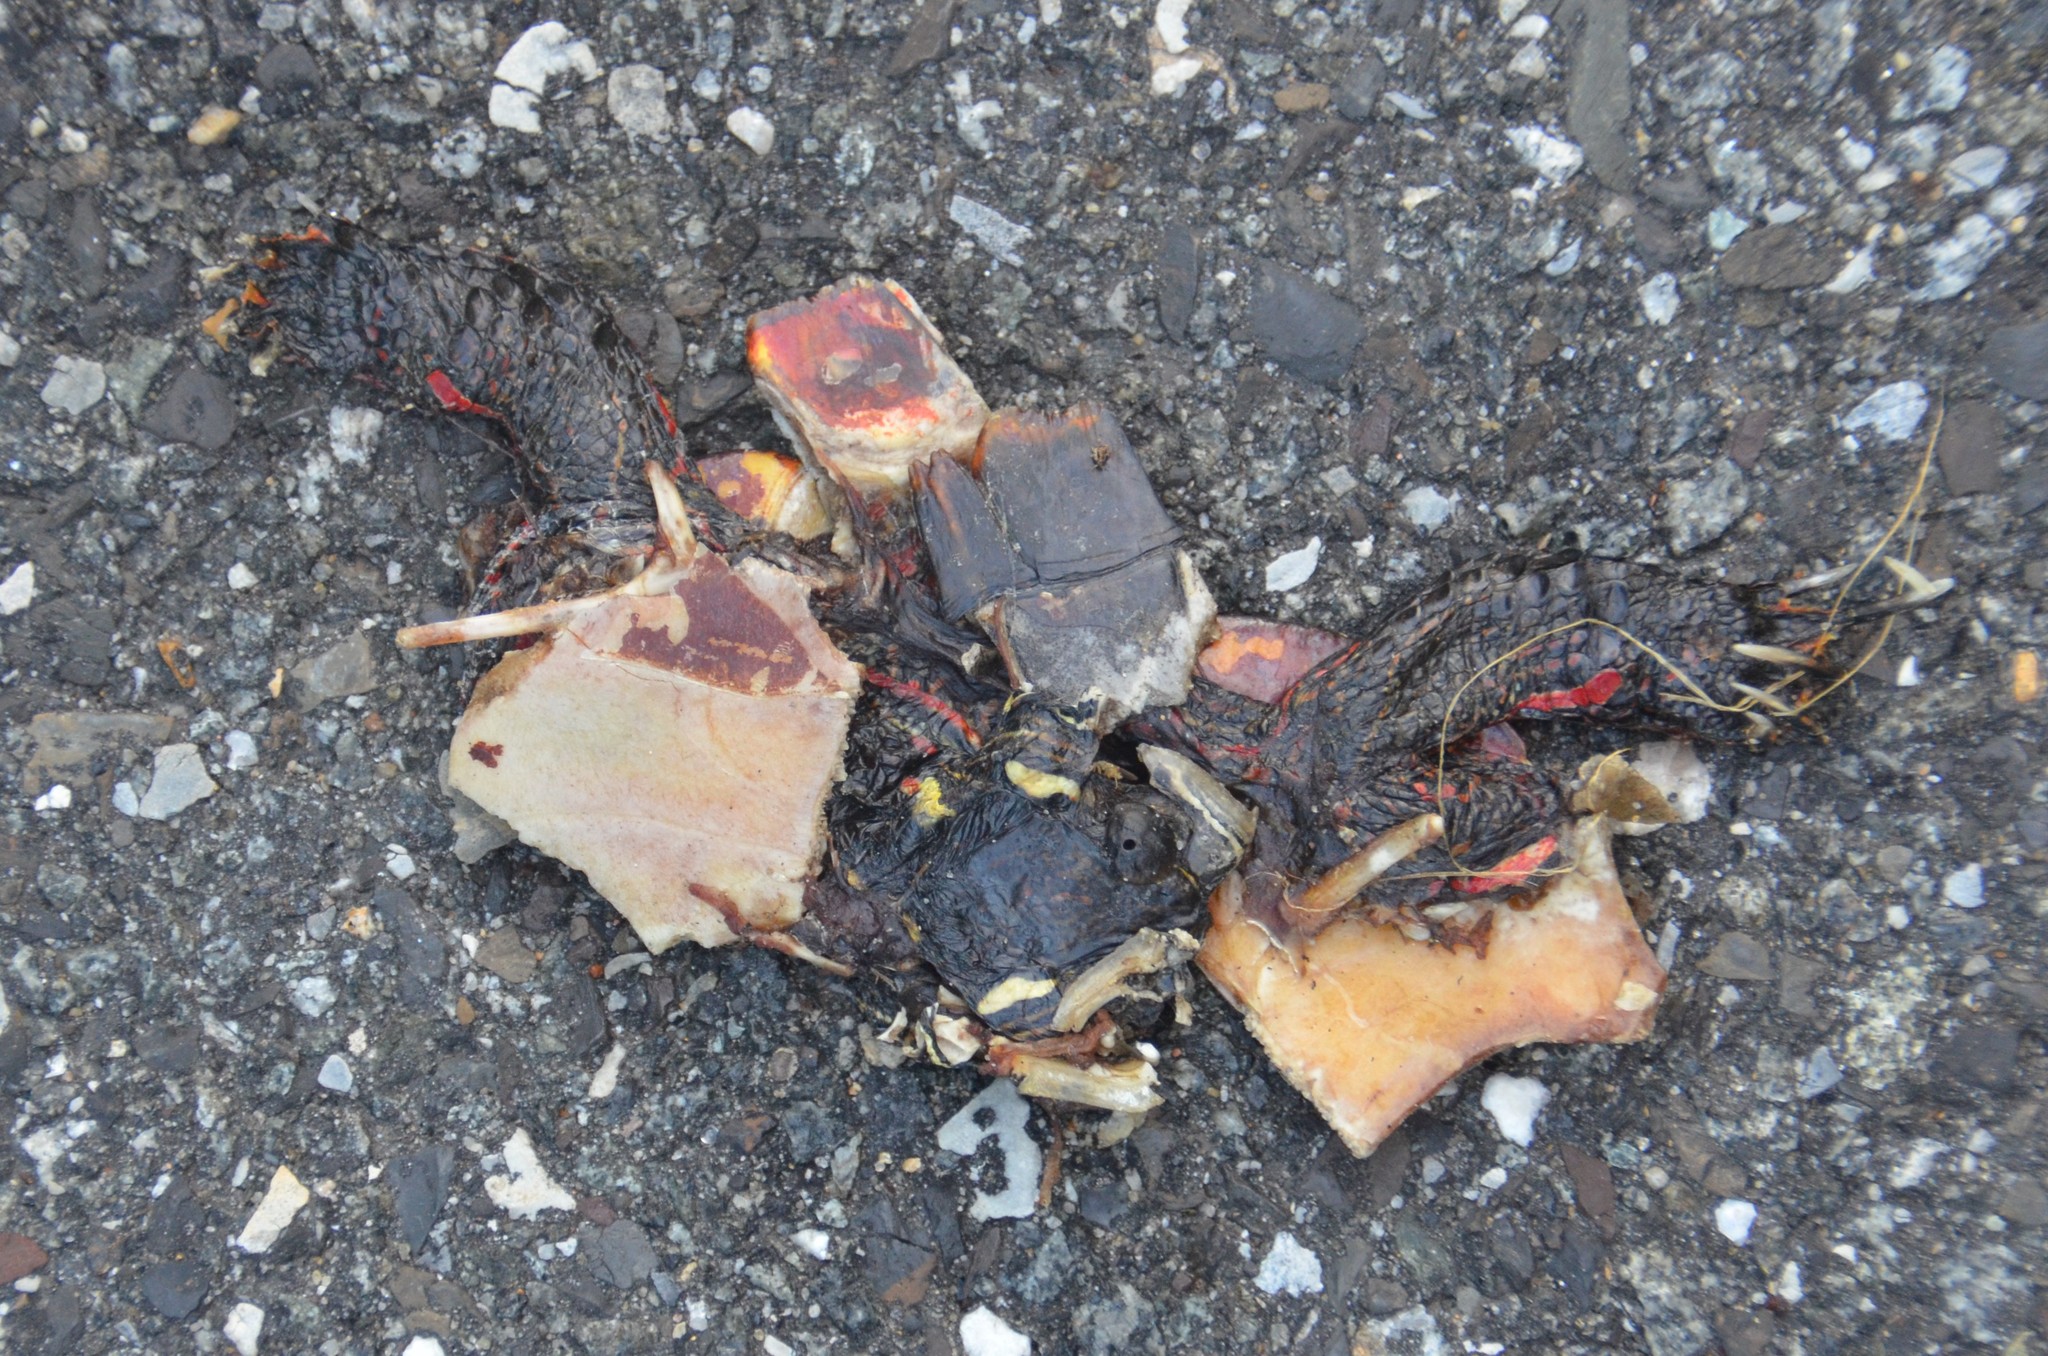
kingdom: Animalia
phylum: Chordata
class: Testudines
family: Emydidae
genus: Chrysemys
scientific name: Chrysemys picta
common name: Painted turtle
